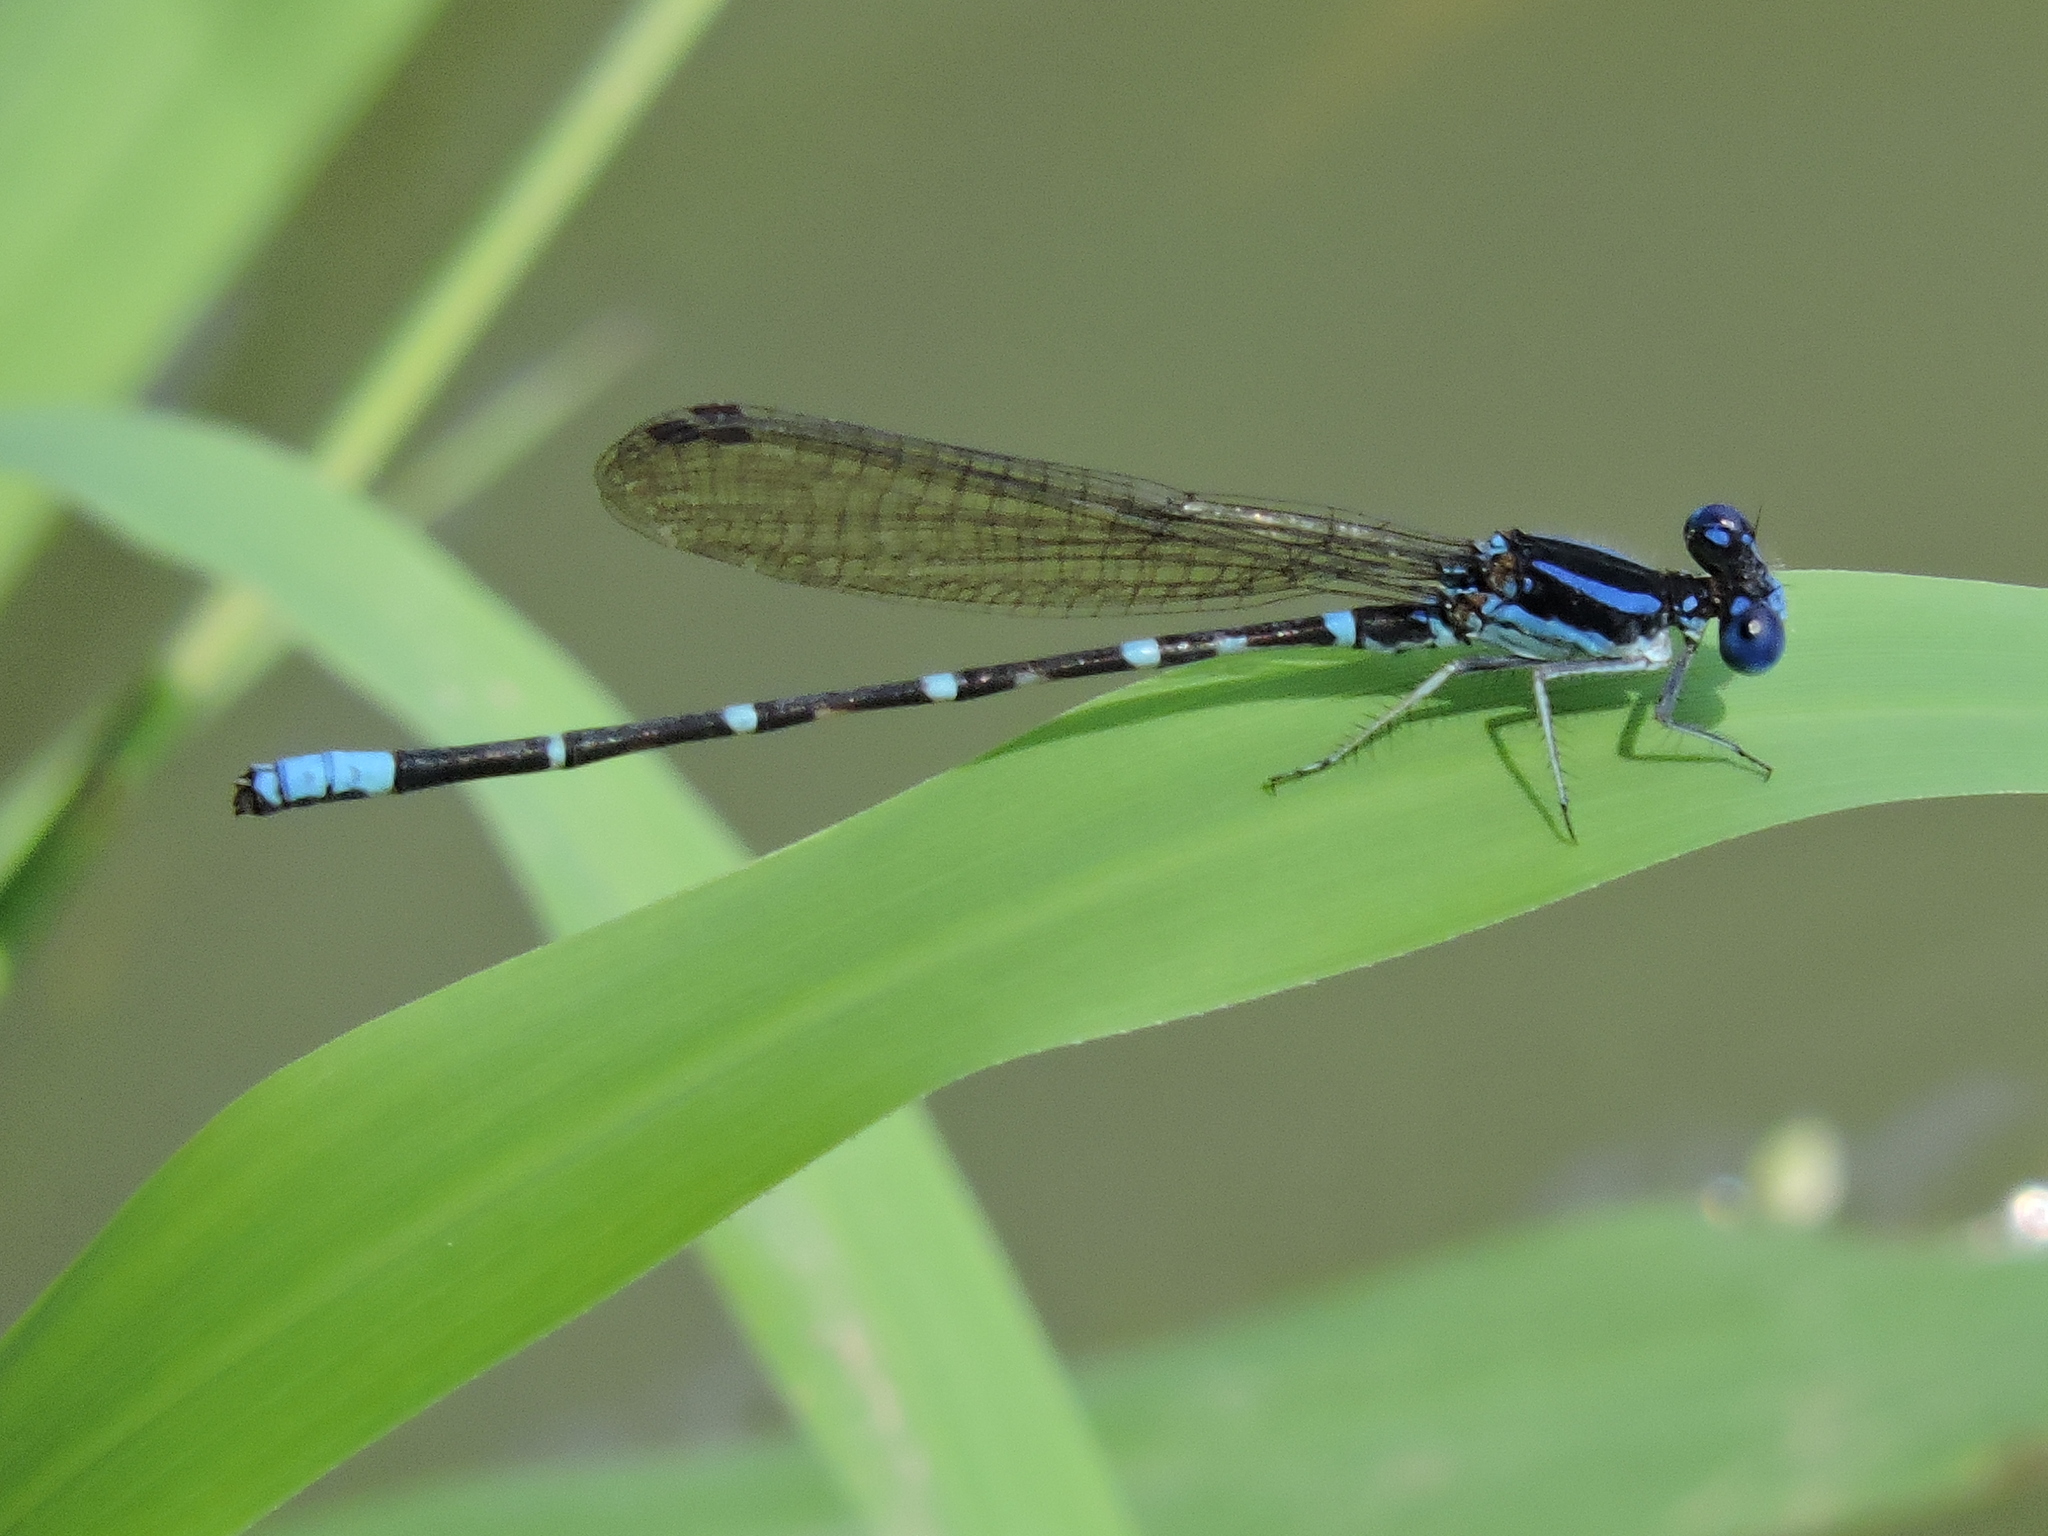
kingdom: Animalia
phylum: Arthropoda
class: Insecta
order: Odonata
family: Coenagrionidae
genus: Argia
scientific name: Argia sedula
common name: Blue-ringed dancer
